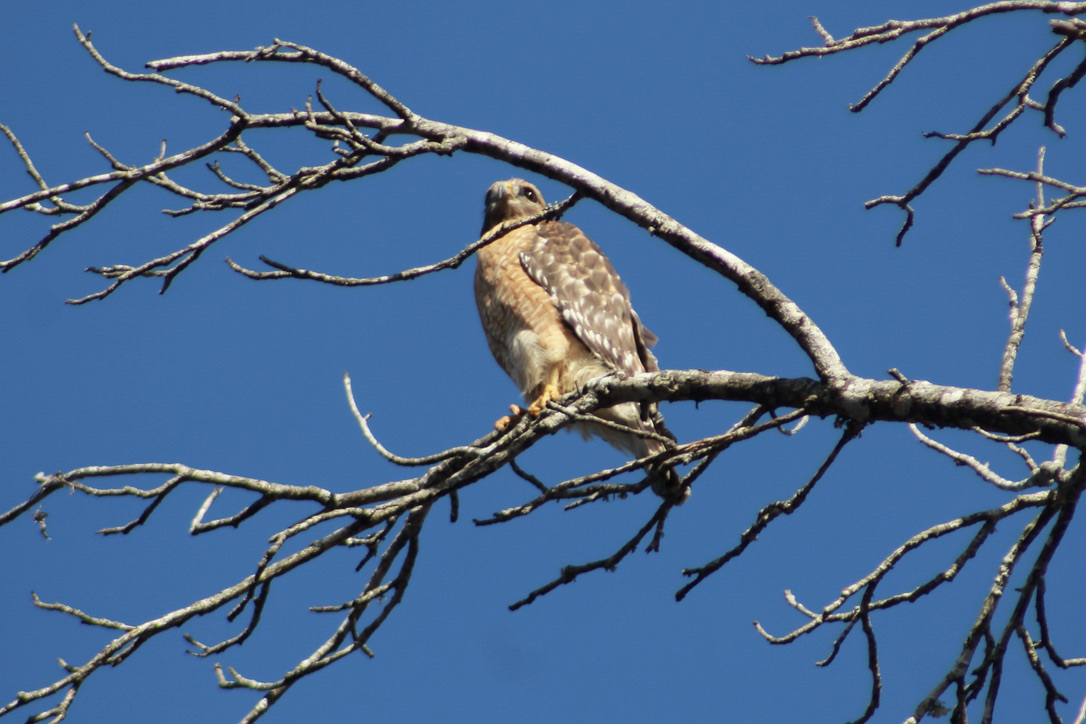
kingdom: Animalia
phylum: Chordata
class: Aves
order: Accipitriformes
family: Accipitridae
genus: Buteo
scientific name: Buteo lineatus
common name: Red-shouldered hawk
